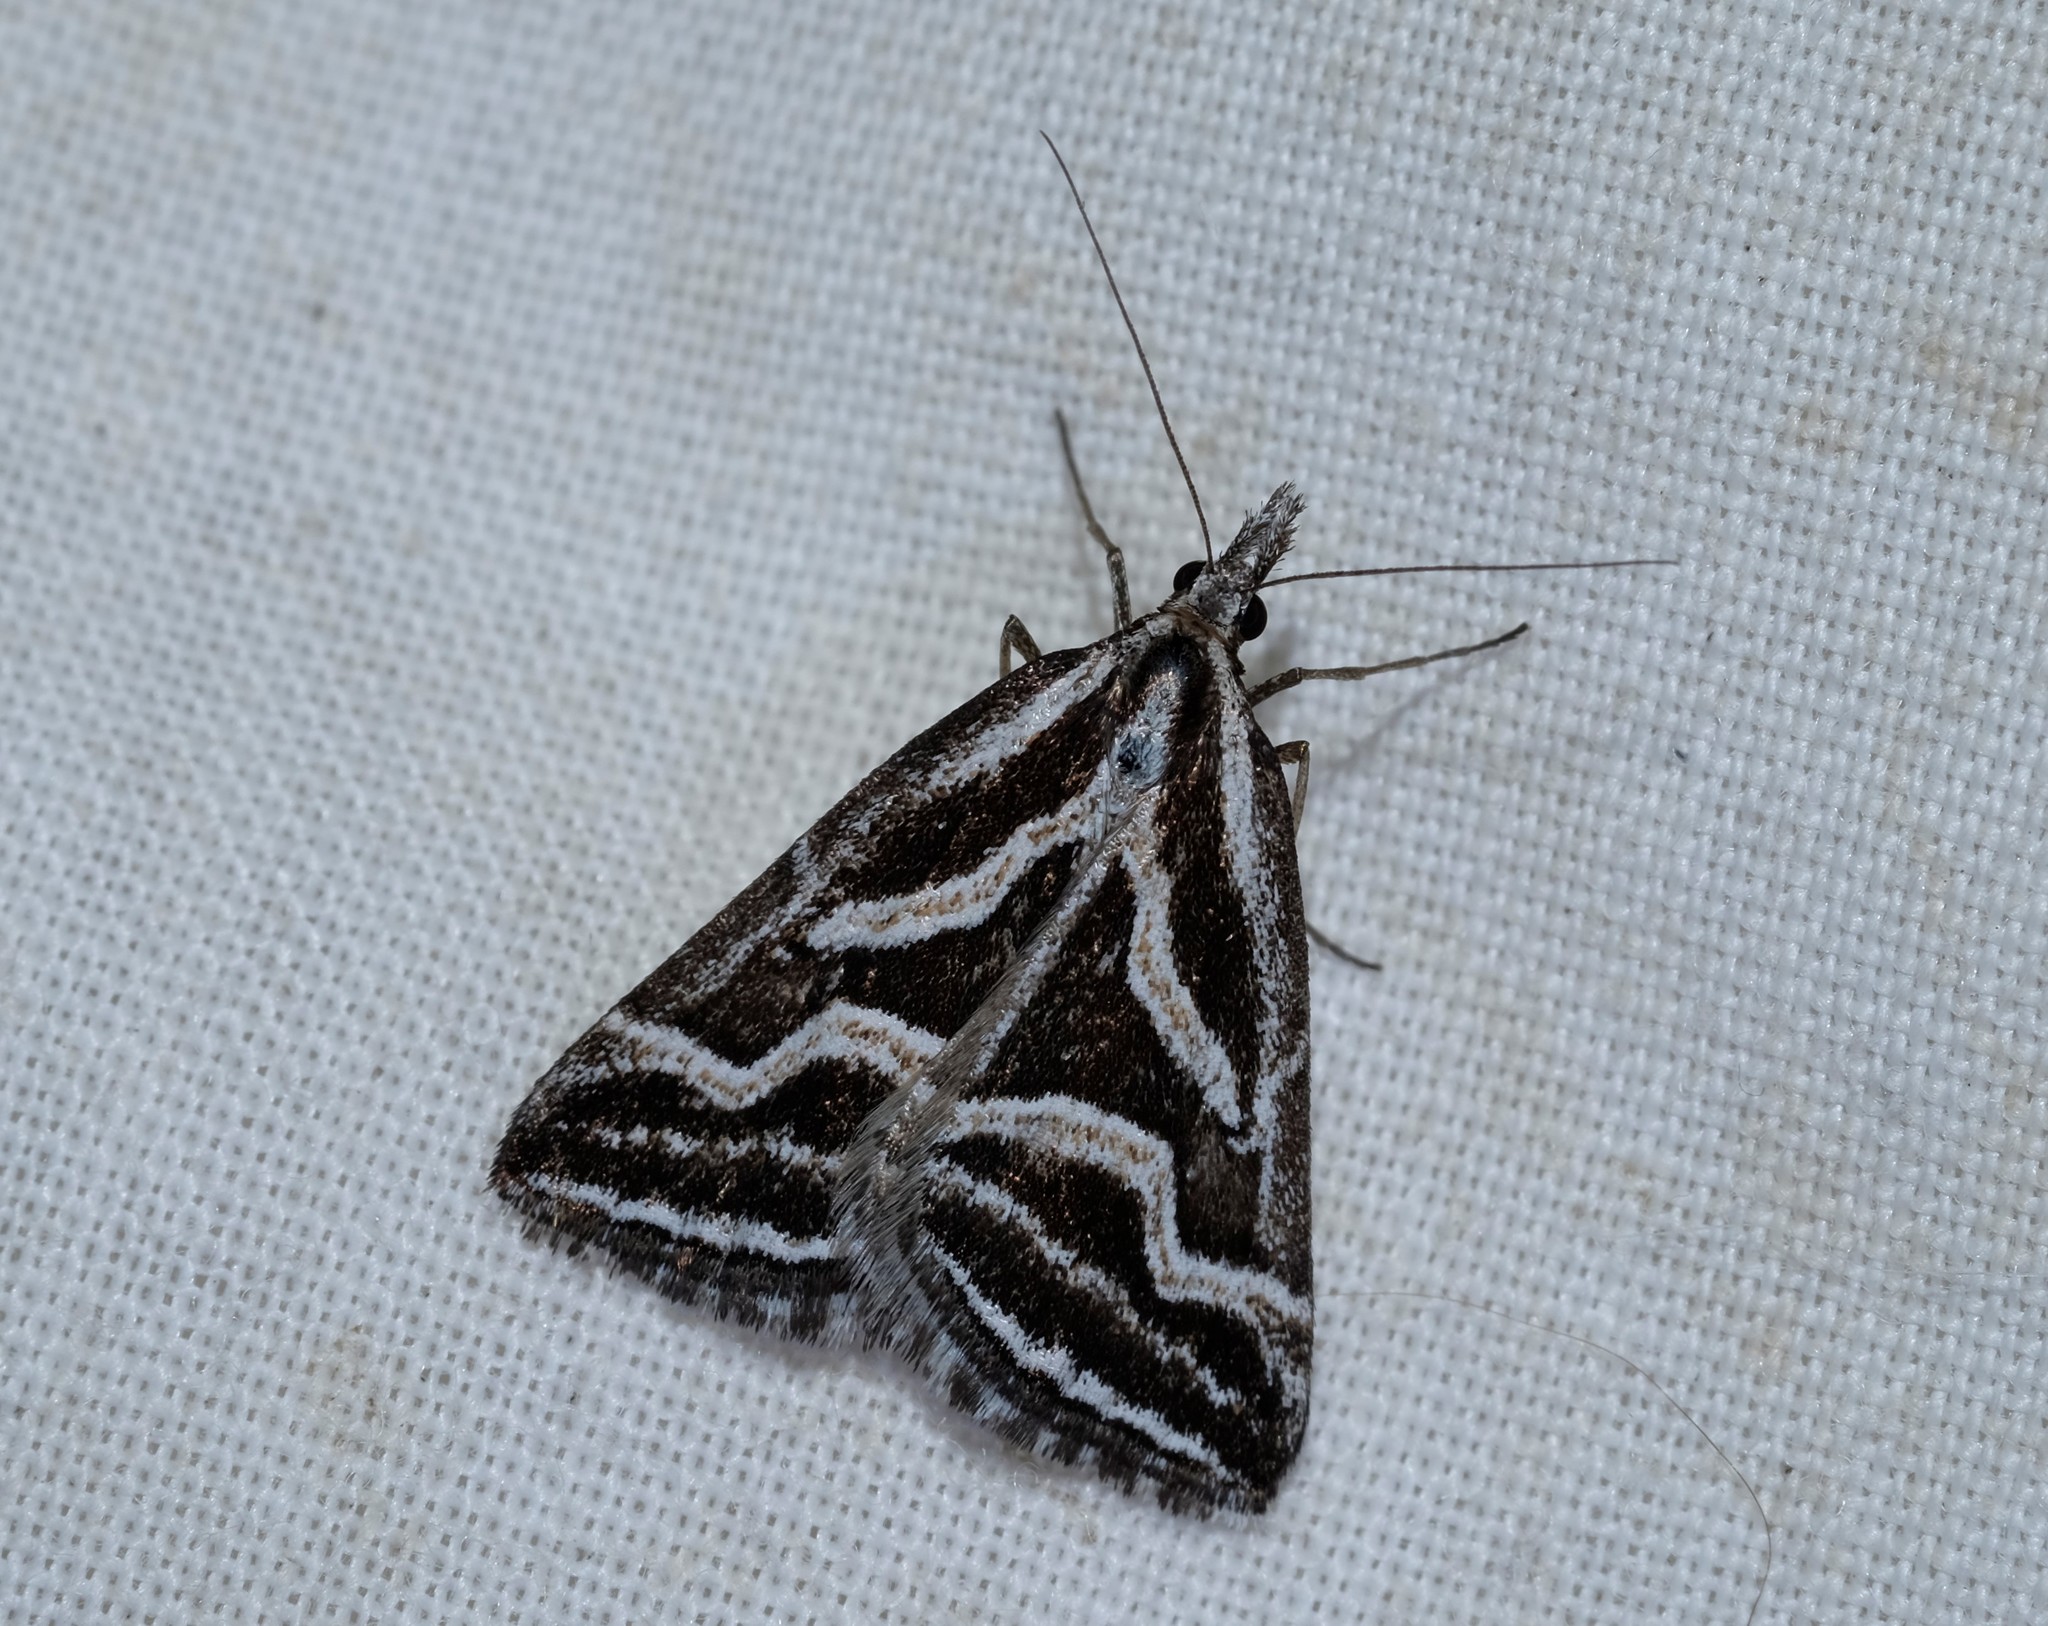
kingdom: Animalia
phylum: Arthropoda
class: Insecta
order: Lepidoptera
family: Geometridae
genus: Dichromodes
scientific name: Dichromodes confluaria
